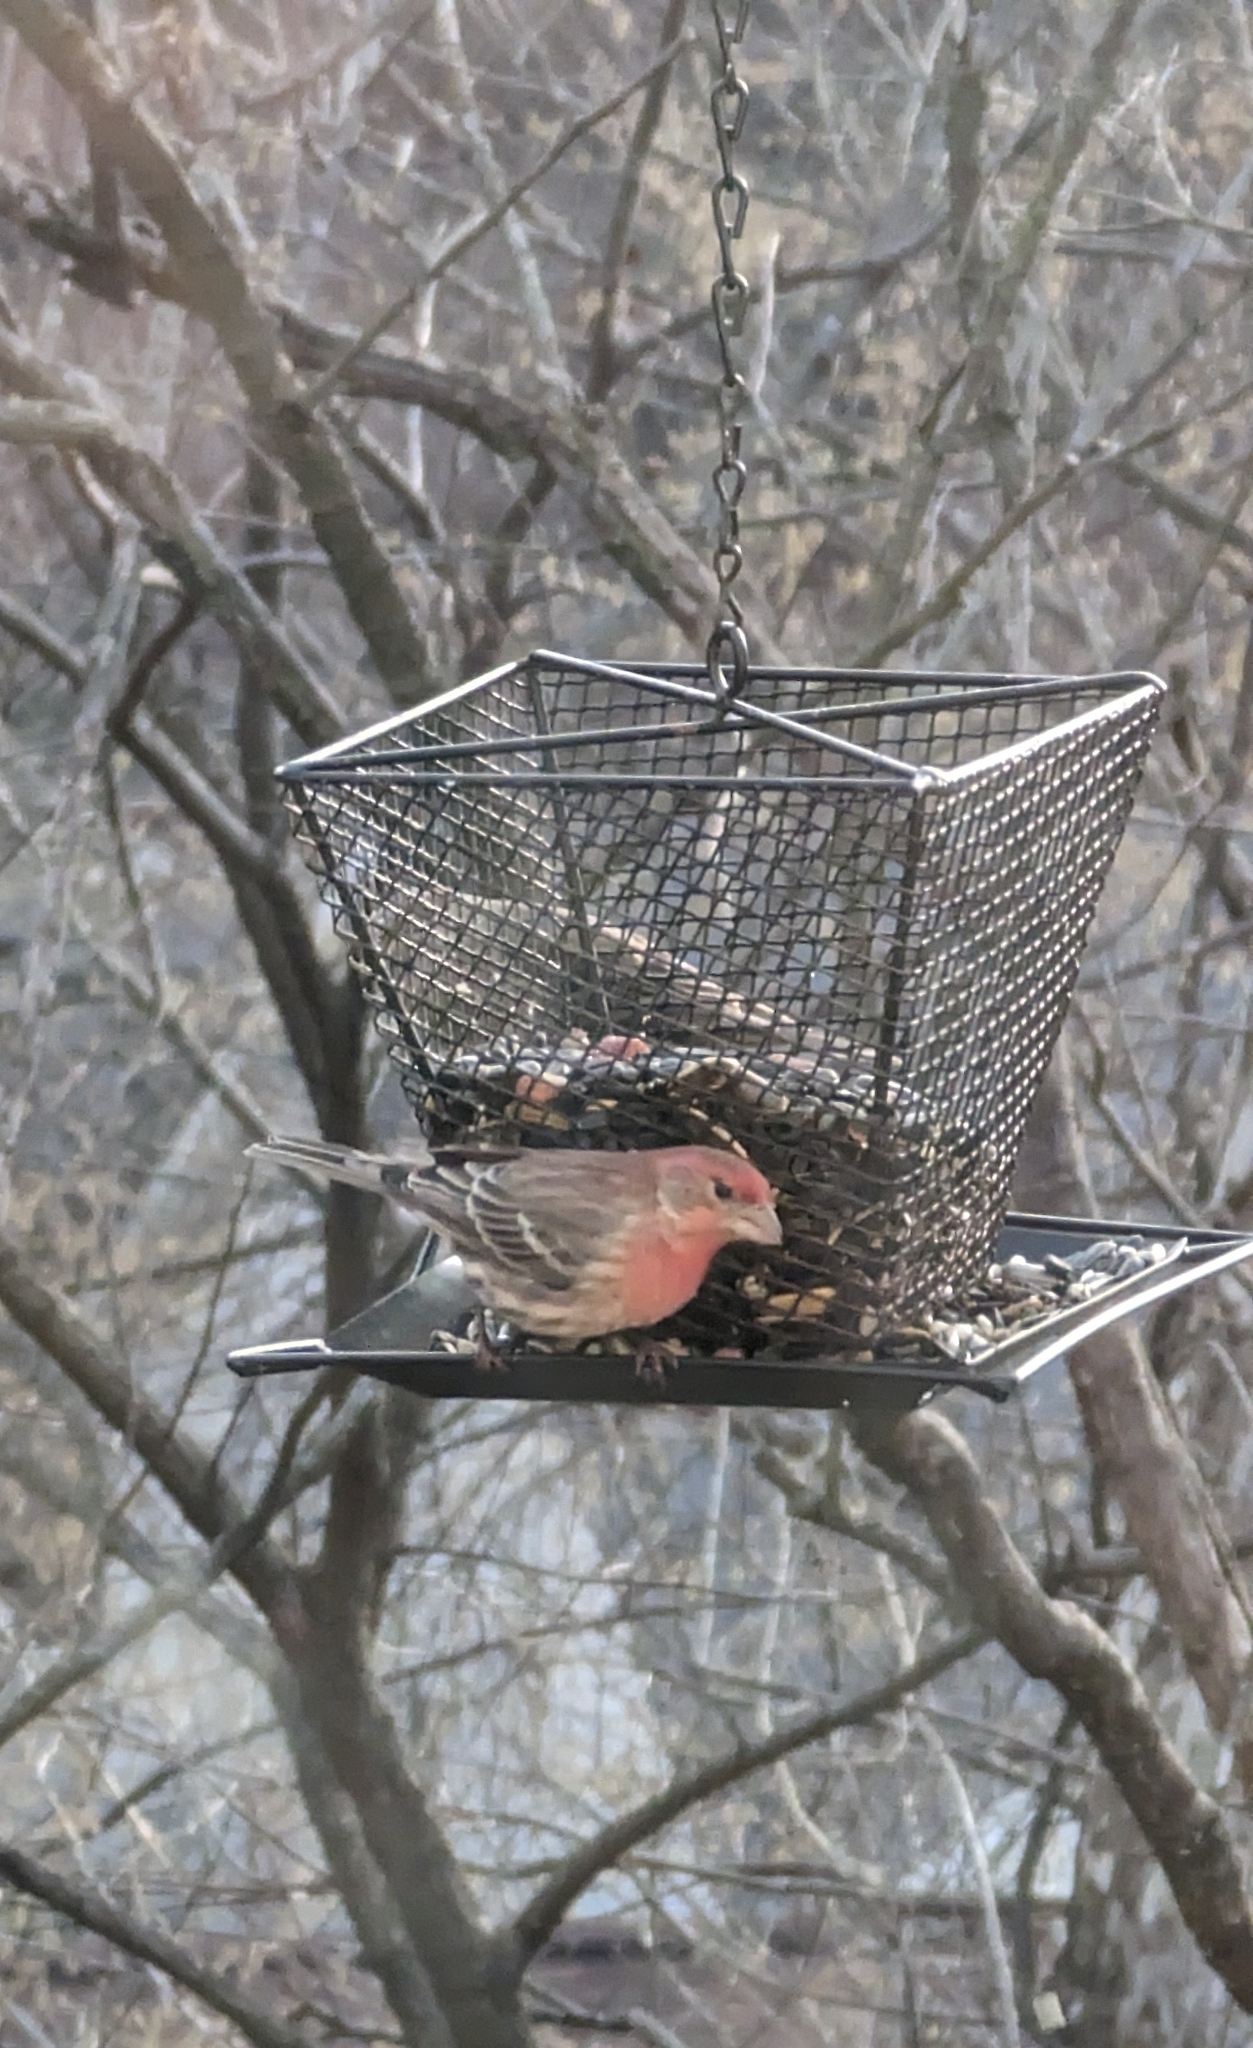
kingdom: Animalia
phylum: Chordata
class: Aves
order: Passeriformes
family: Fringillidae
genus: Haemorhous
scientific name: Haemorhous mexicanus
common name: House finch
